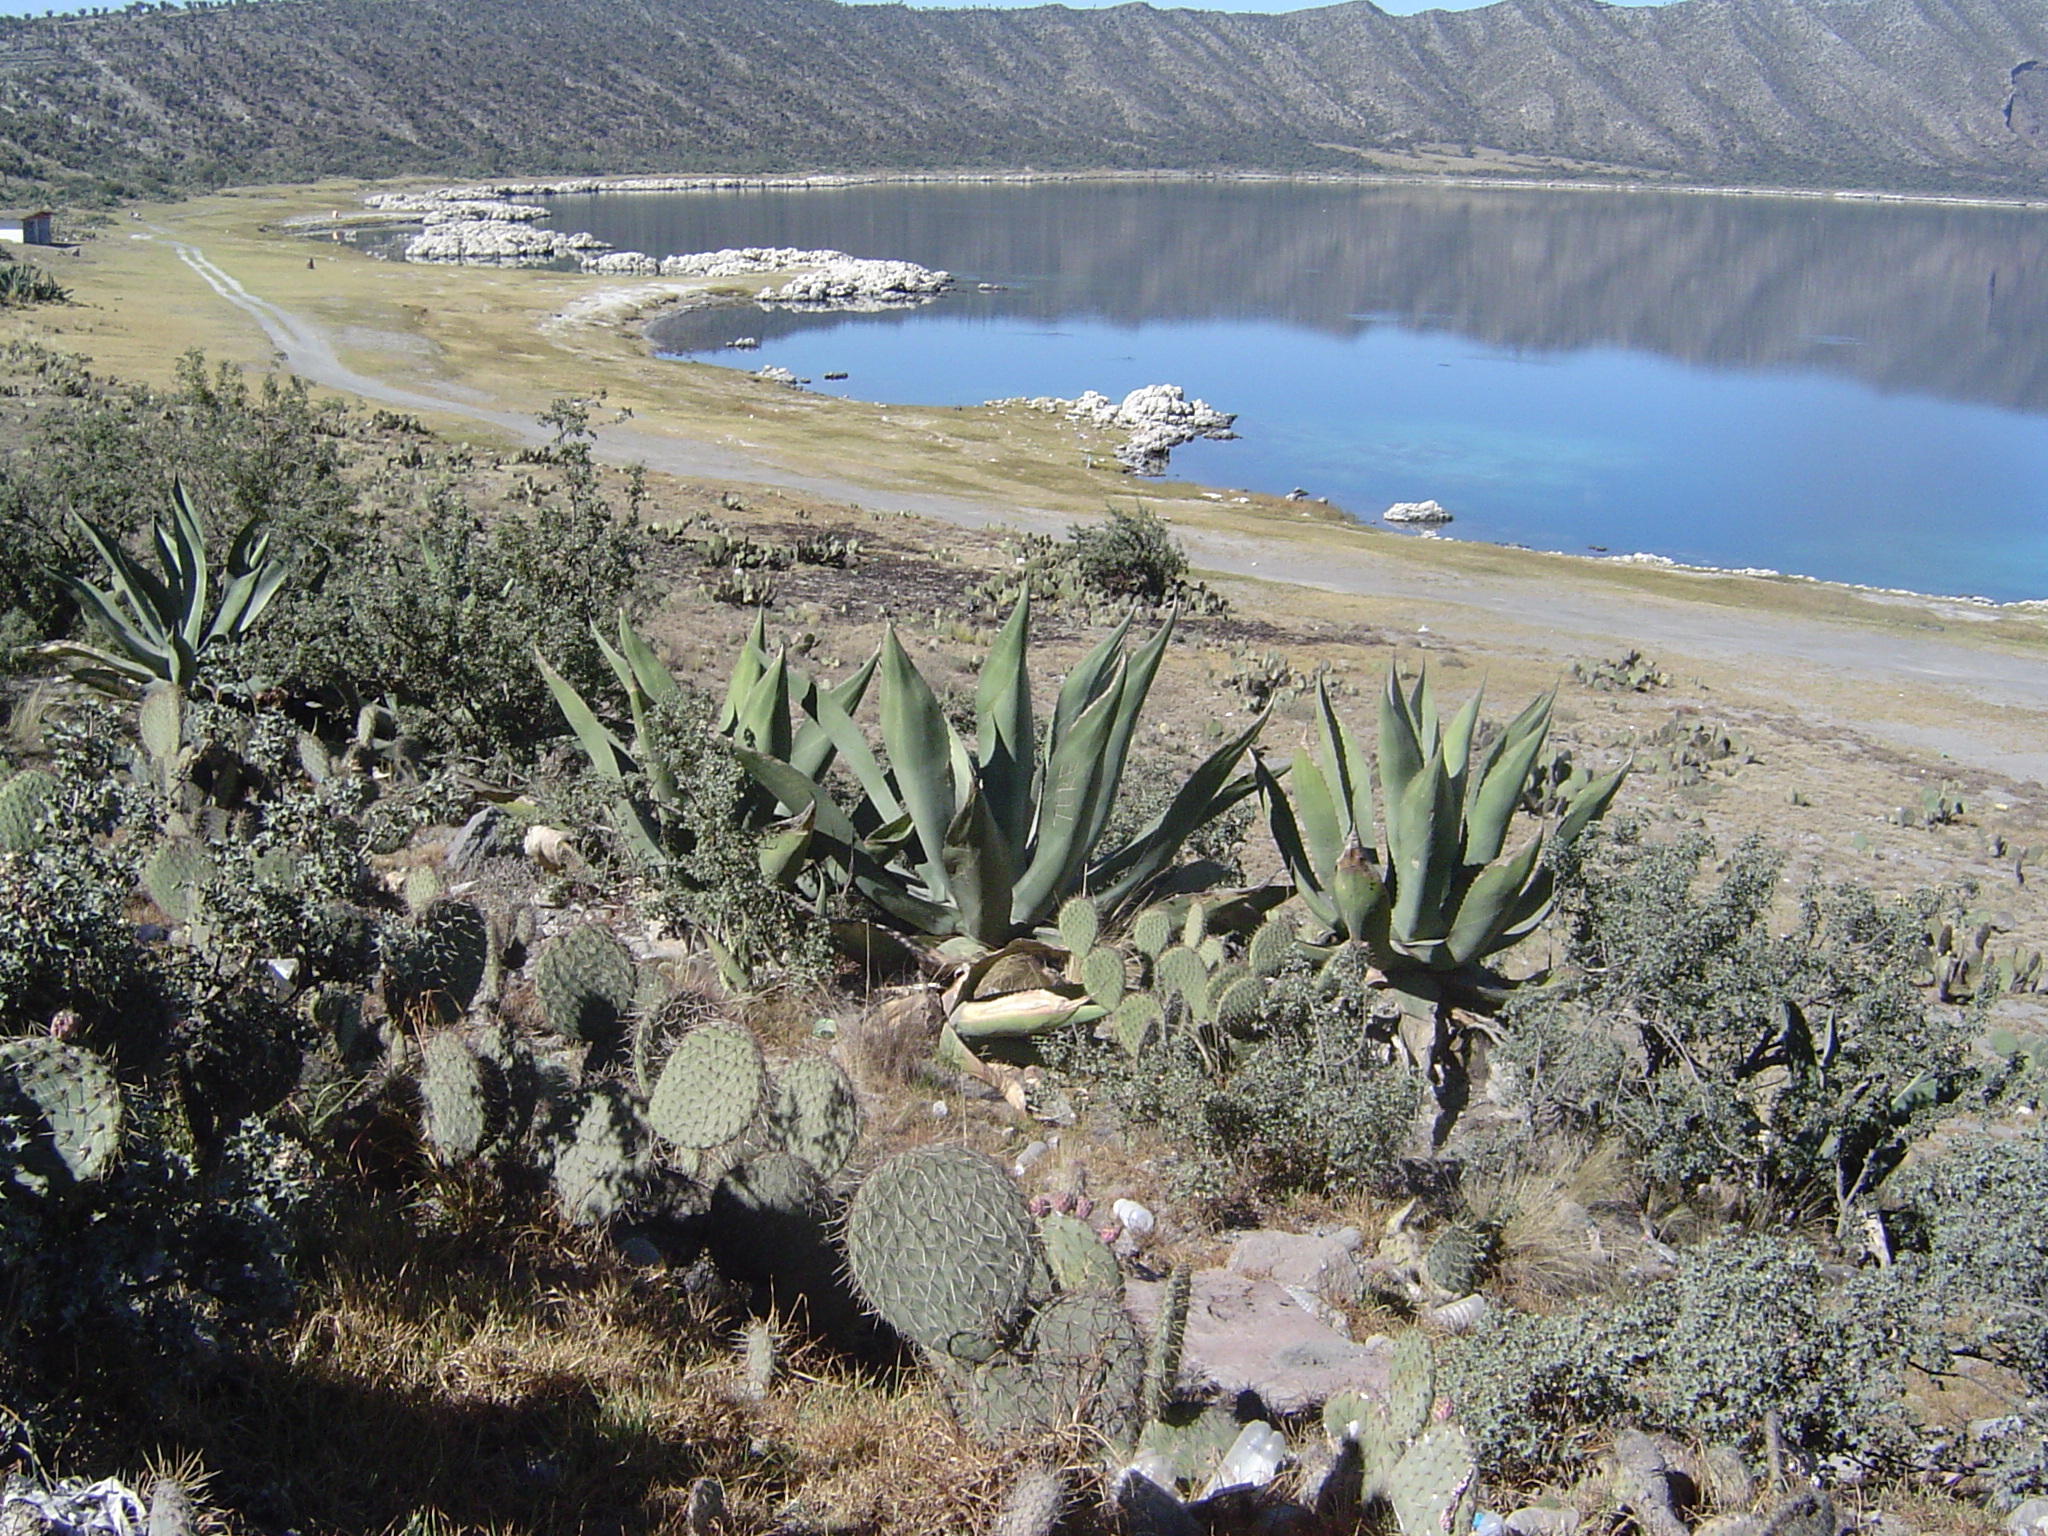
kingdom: Plantae
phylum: Tracheophyta
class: Magnoliopsida
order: Caryophyllales
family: Cactaceae
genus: Opuntia
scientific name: Opuntia perotensis
